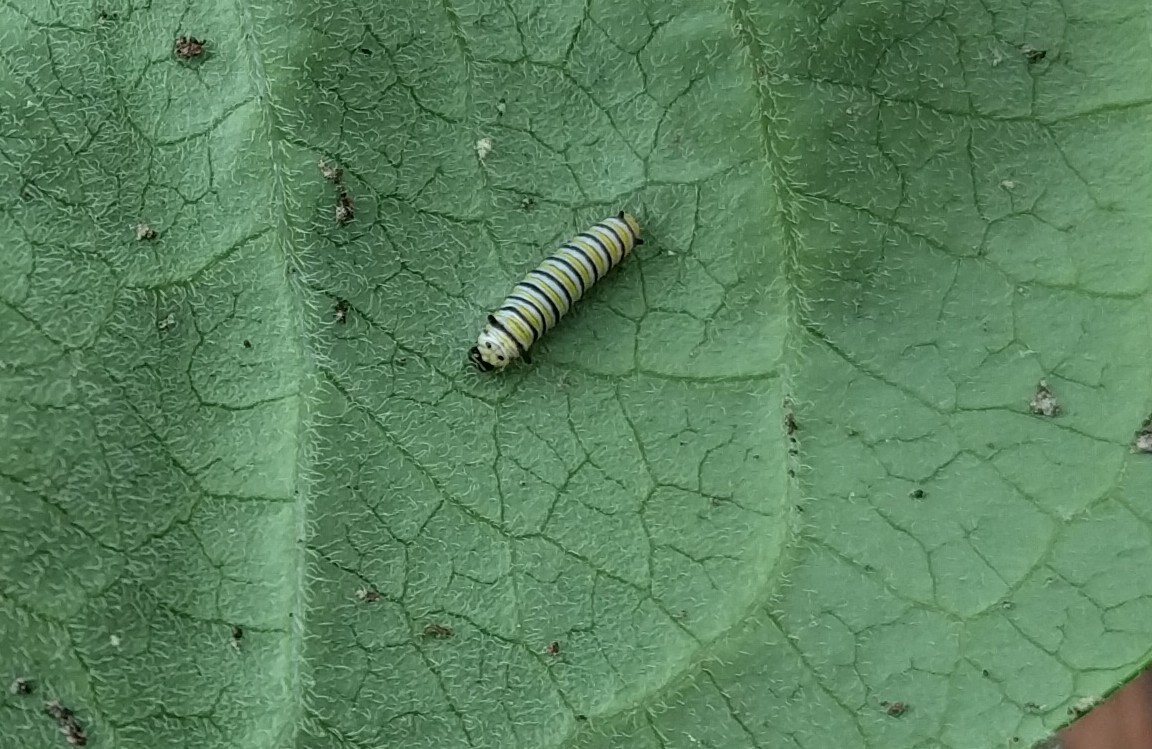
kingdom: Animalia
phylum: Arthropoda
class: Insecta
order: Lepidoptera
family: Nymphalidae
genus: Danaus
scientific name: Danaus plexippus
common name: Monarch
